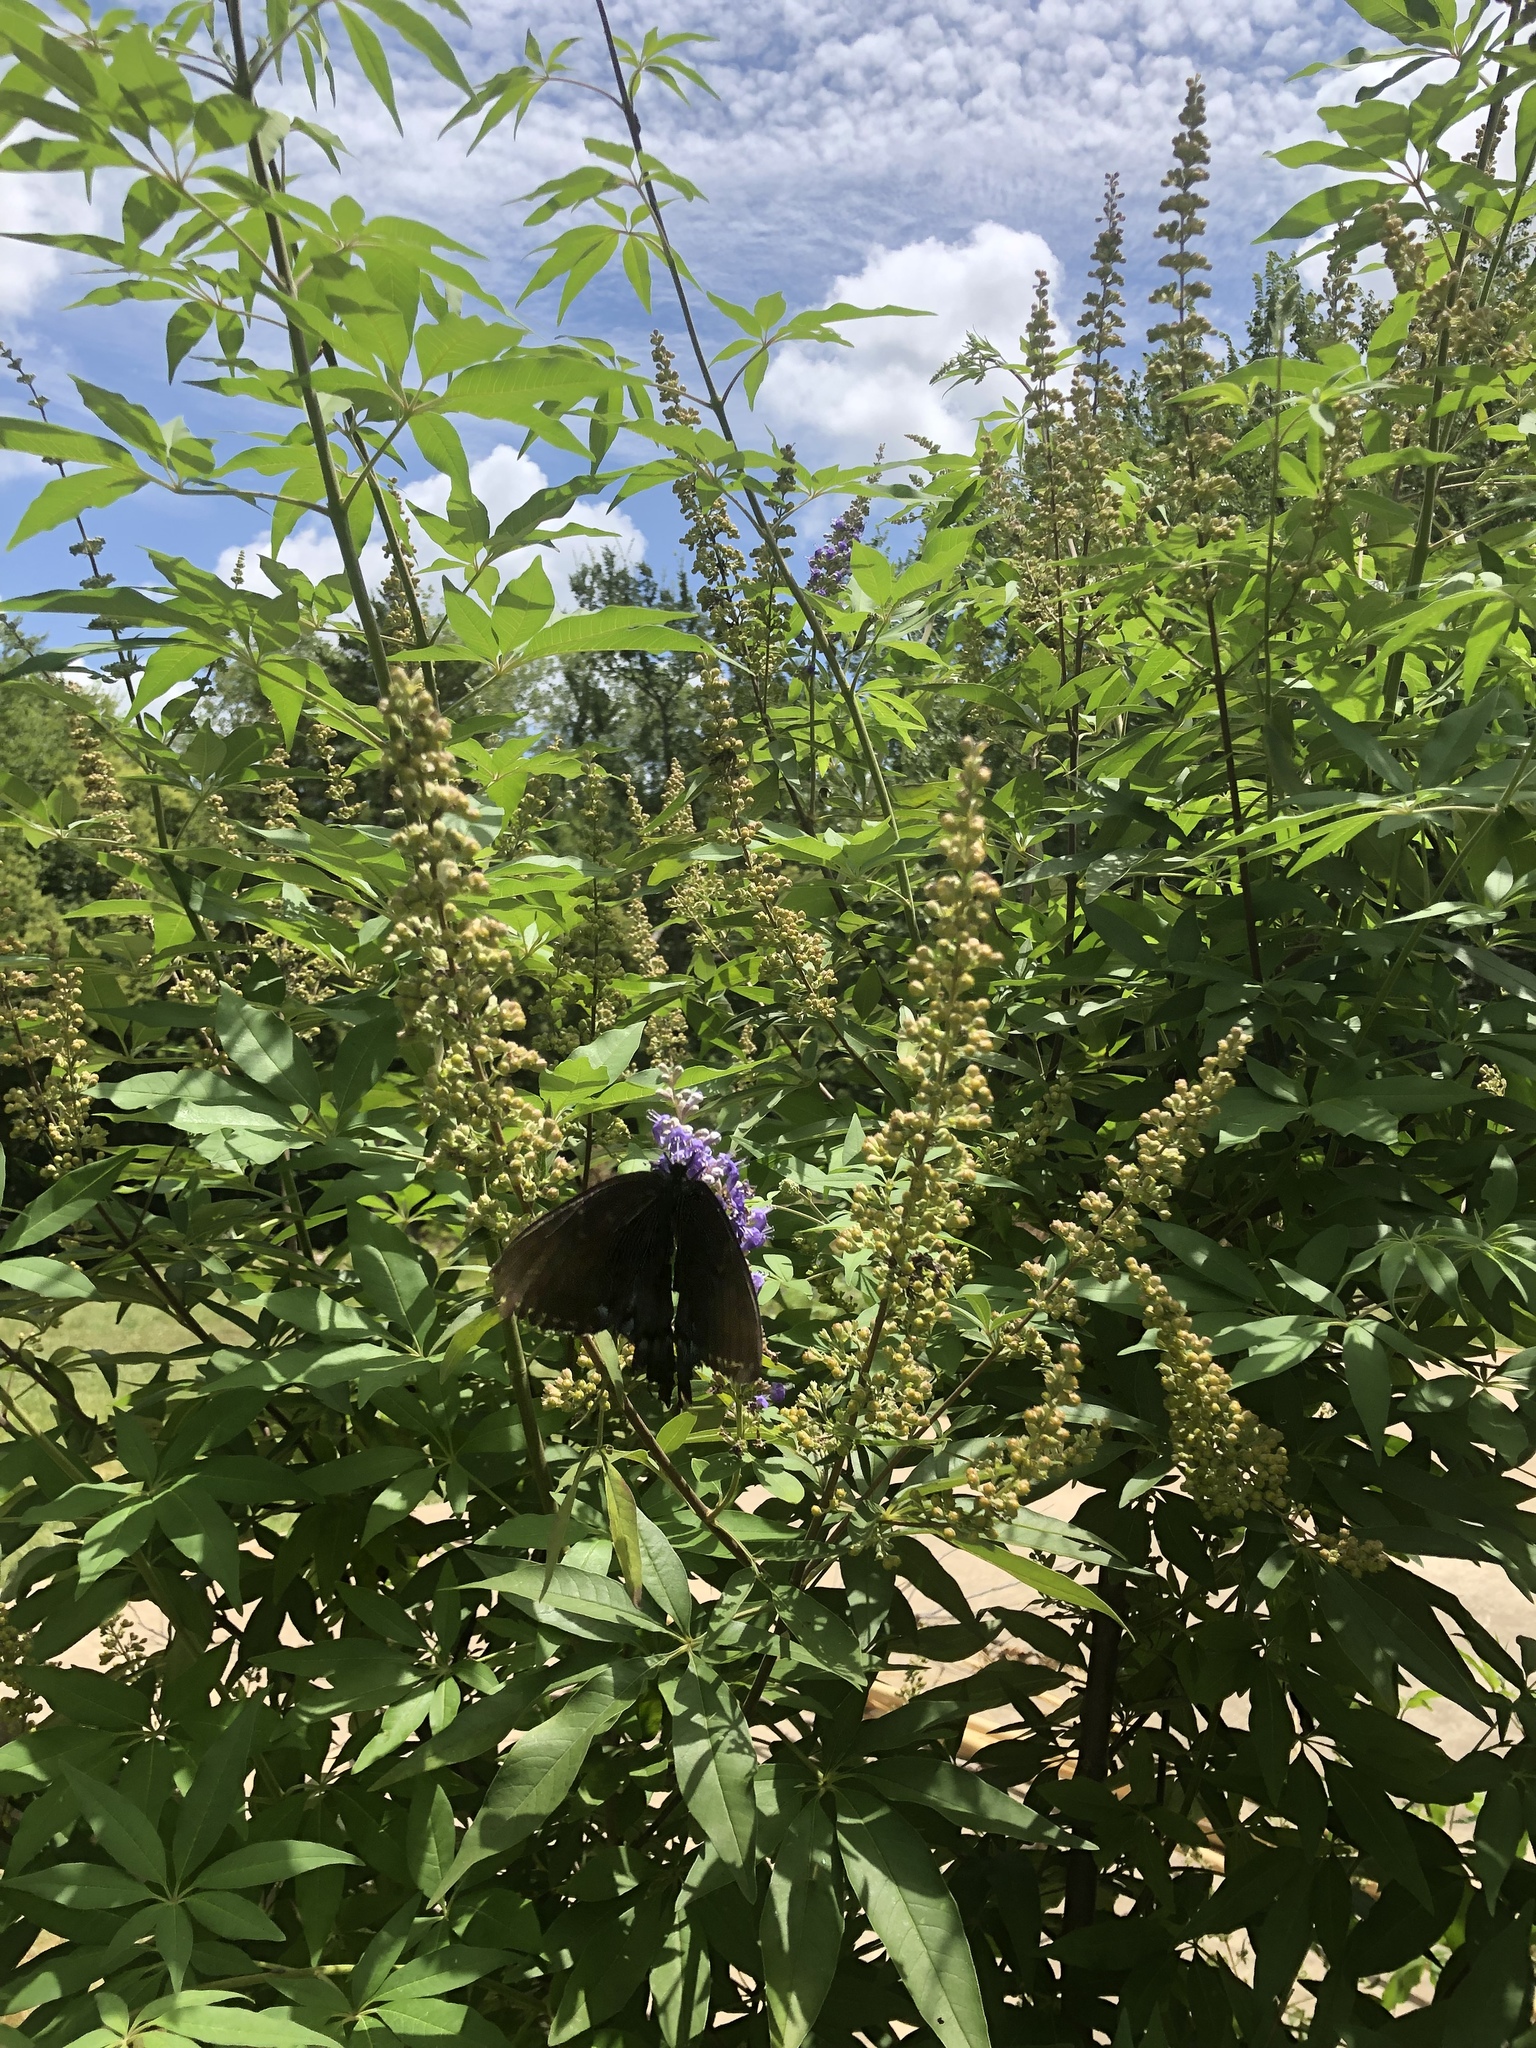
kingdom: Animalia
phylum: Arthropoda
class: Insecta
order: Lepidoptera
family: Papilionidae
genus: Papilio
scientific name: Papilio glaucus
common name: Tiger swallowtail
